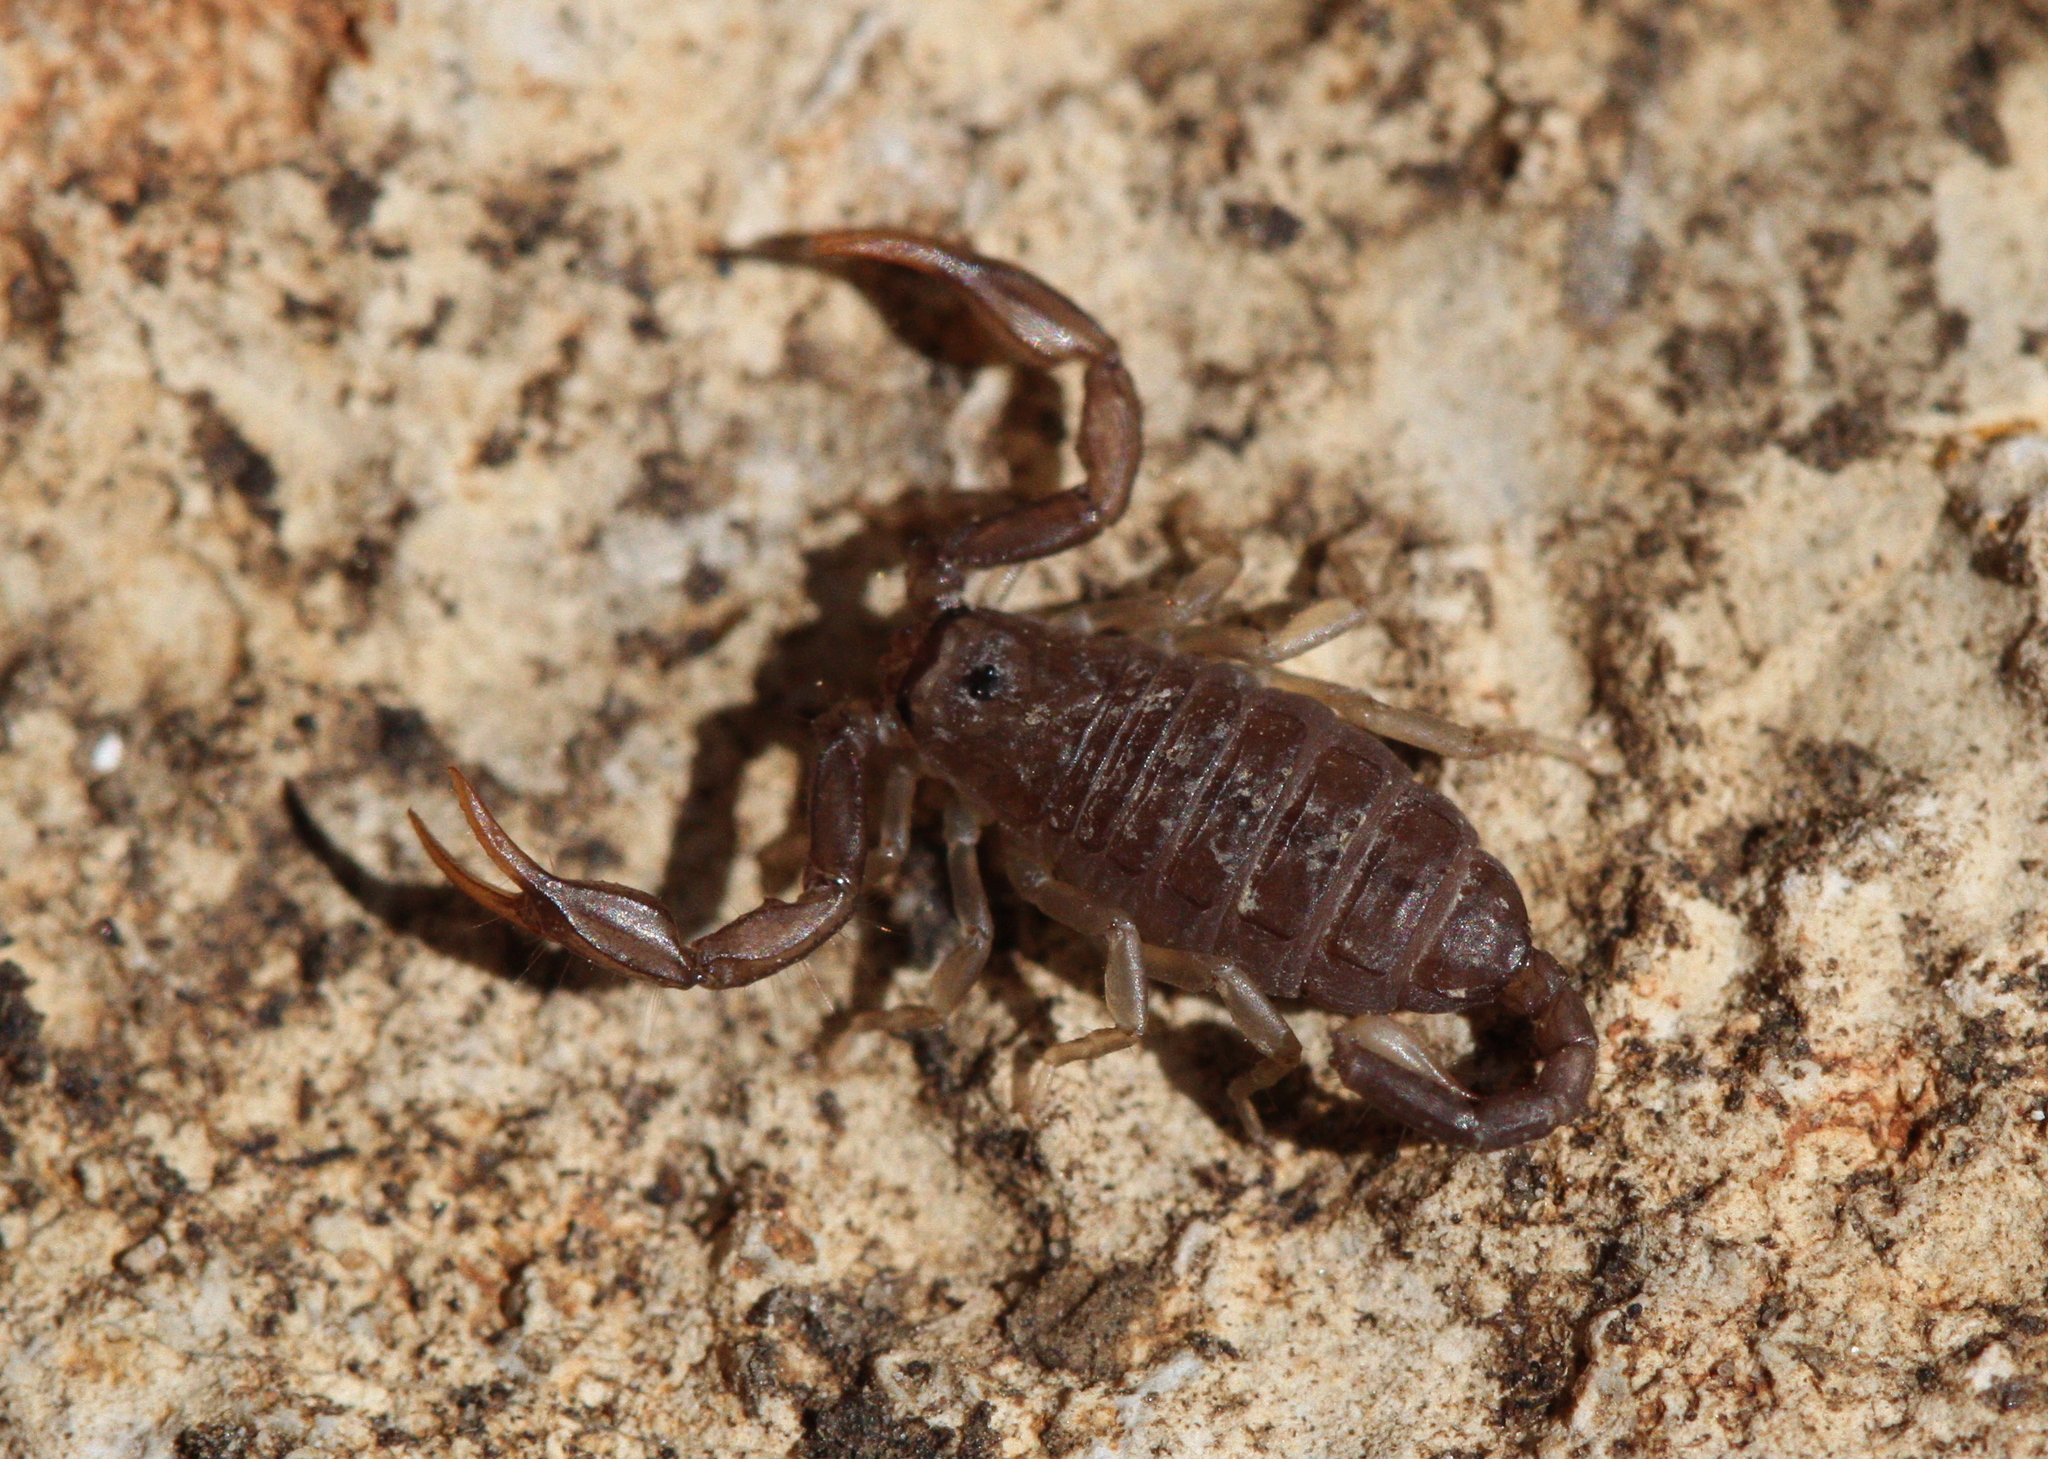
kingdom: Animalia
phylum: Arthropoda
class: Arachnida
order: Scorpiones
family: Euscorpiidae
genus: Euscorpius
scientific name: Euscorpius flavicaudis
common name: European yellow-tailed scorpion
